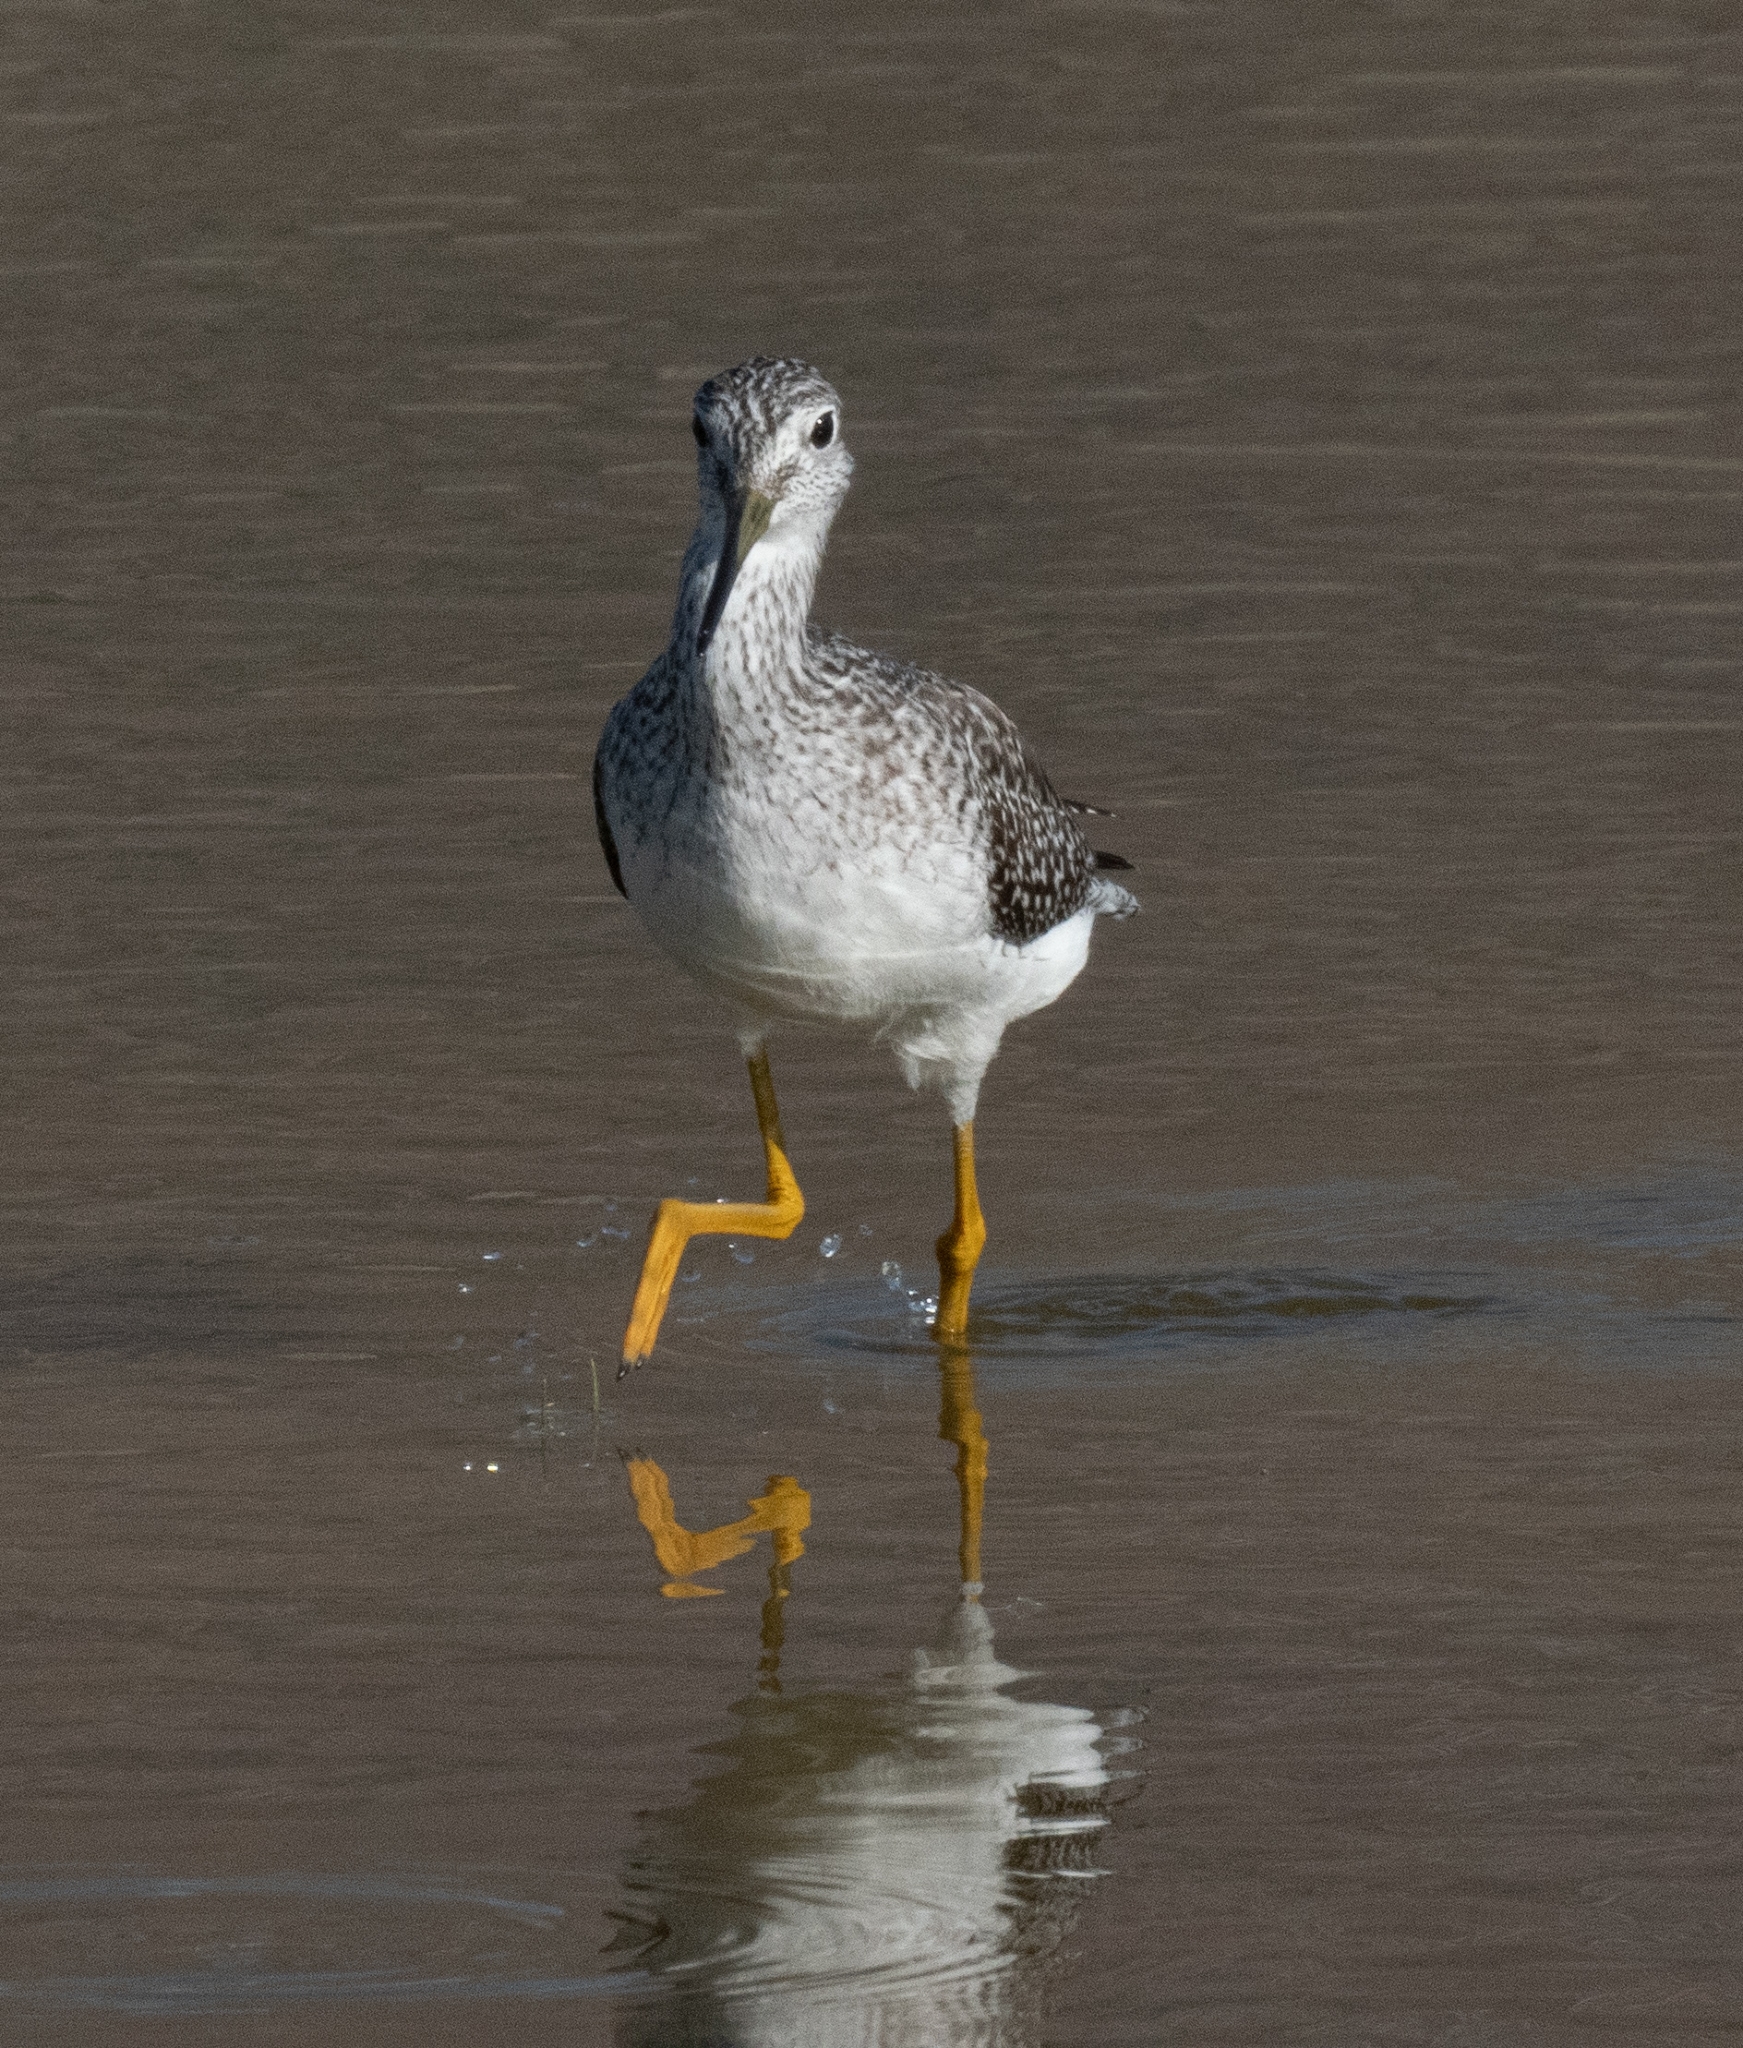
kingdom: Animalia
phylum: Chordata
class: Aves
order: Charadriiformes
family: Scolopacidae
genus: Tringa
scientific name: Tringa melanoleuca
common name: Greater yellowlegs
